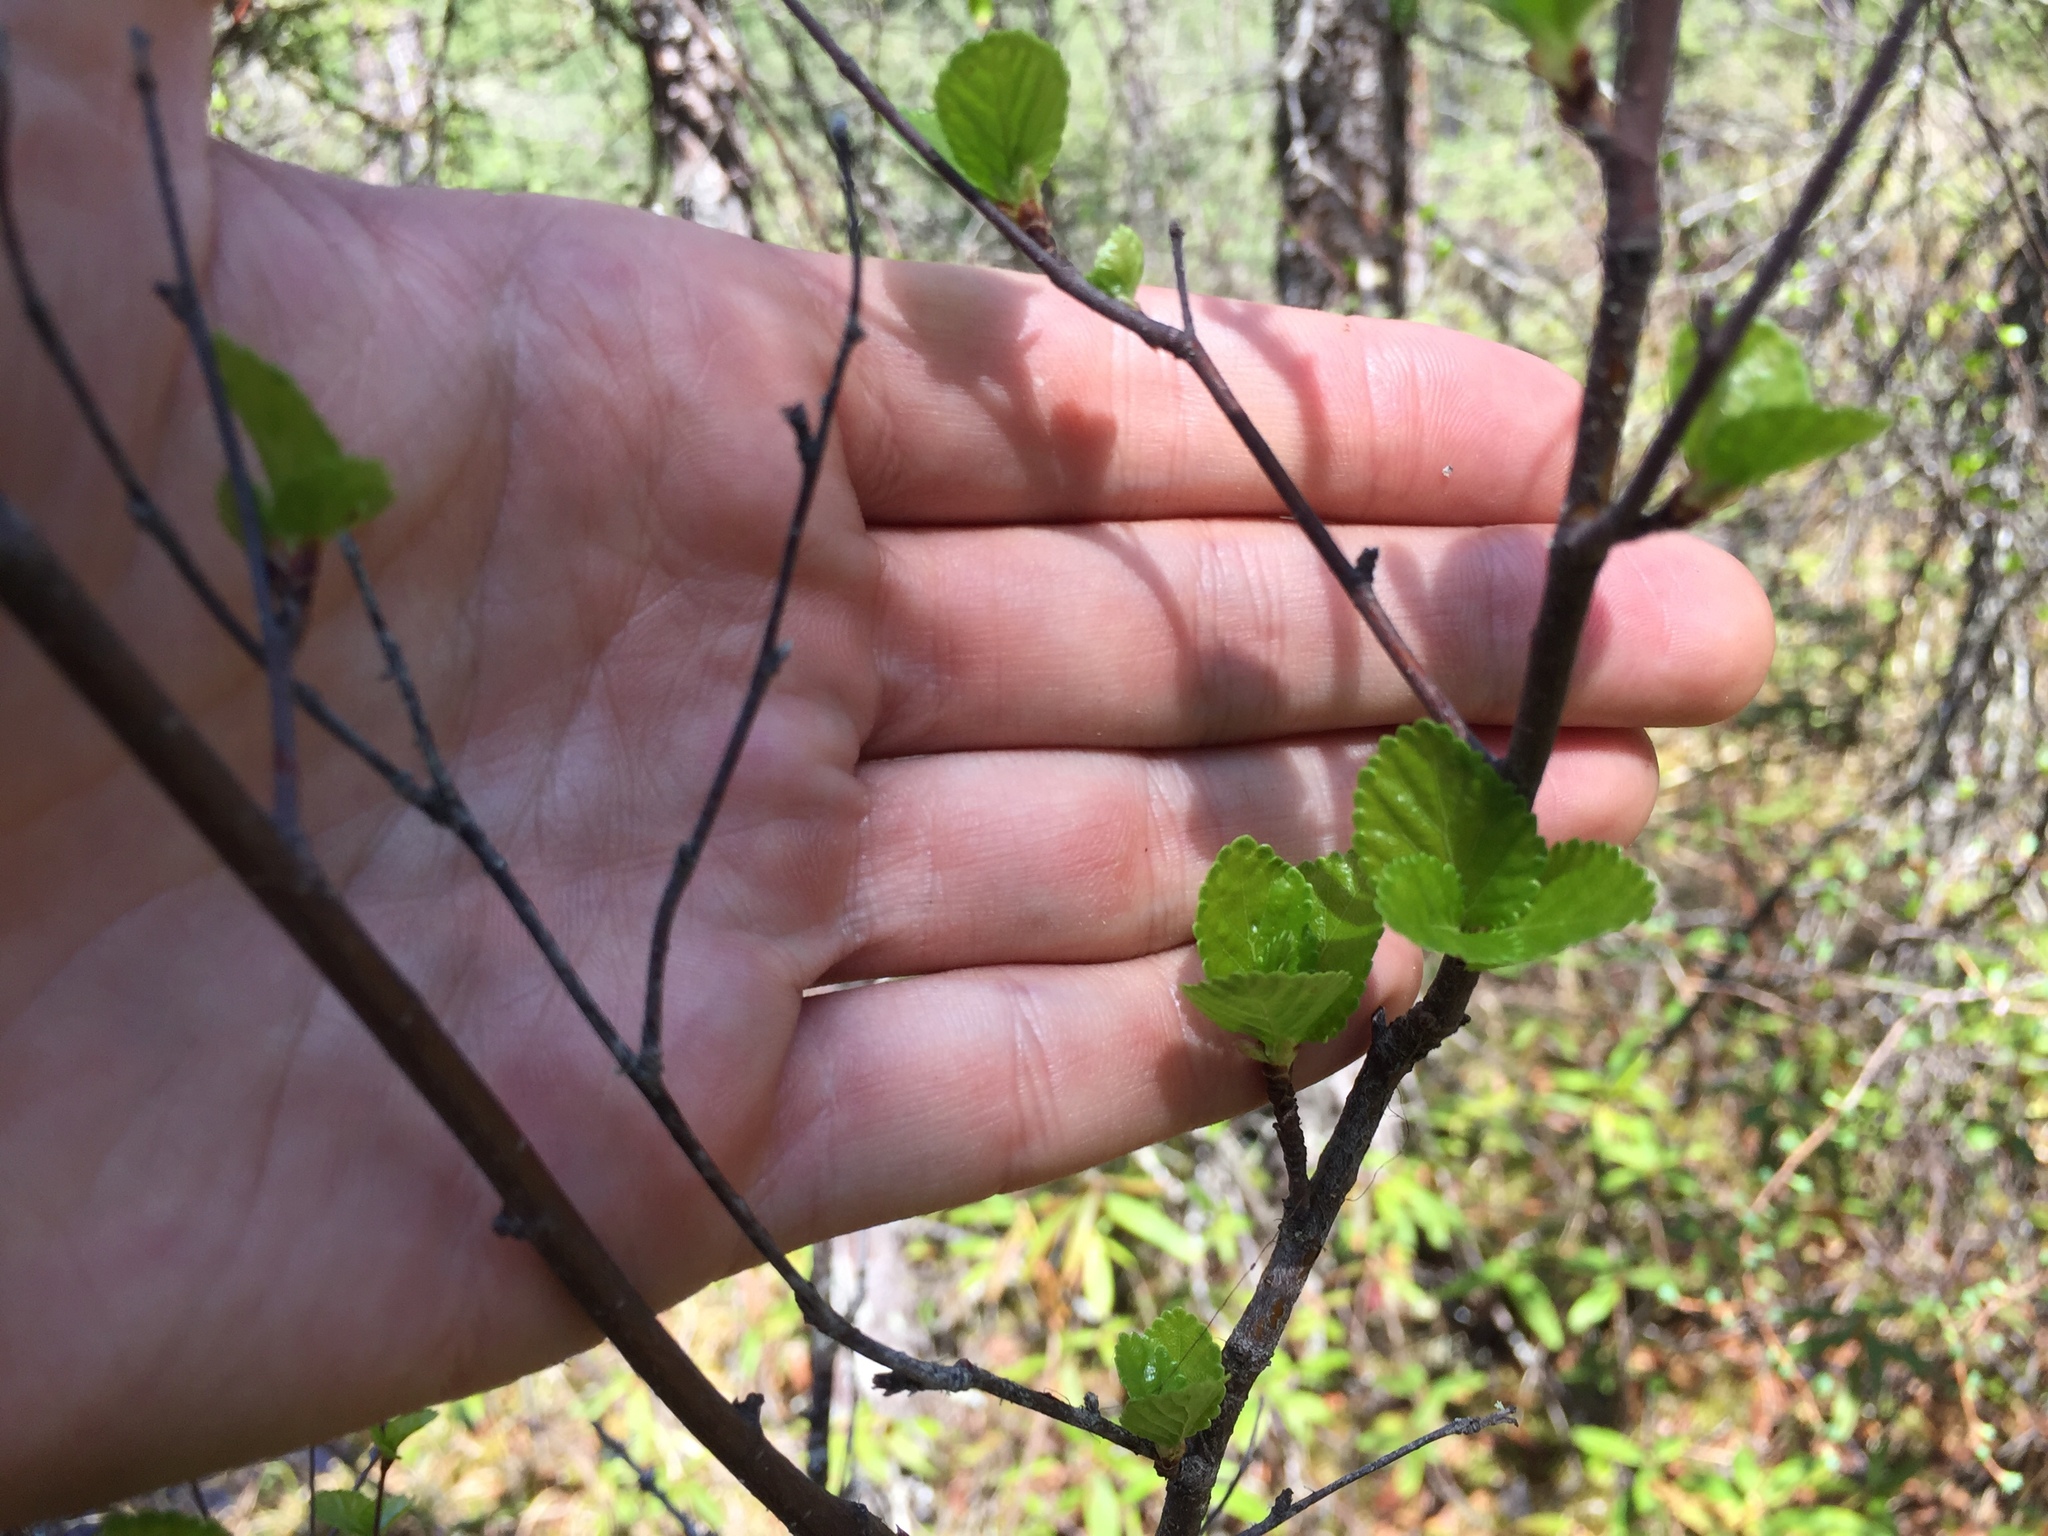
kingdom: Plantae
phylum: Tracheophyta
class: Magnoliopsida
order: Fagales
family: Betulaceae
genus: Betula
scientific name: Betula pumila
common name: Bog birch
